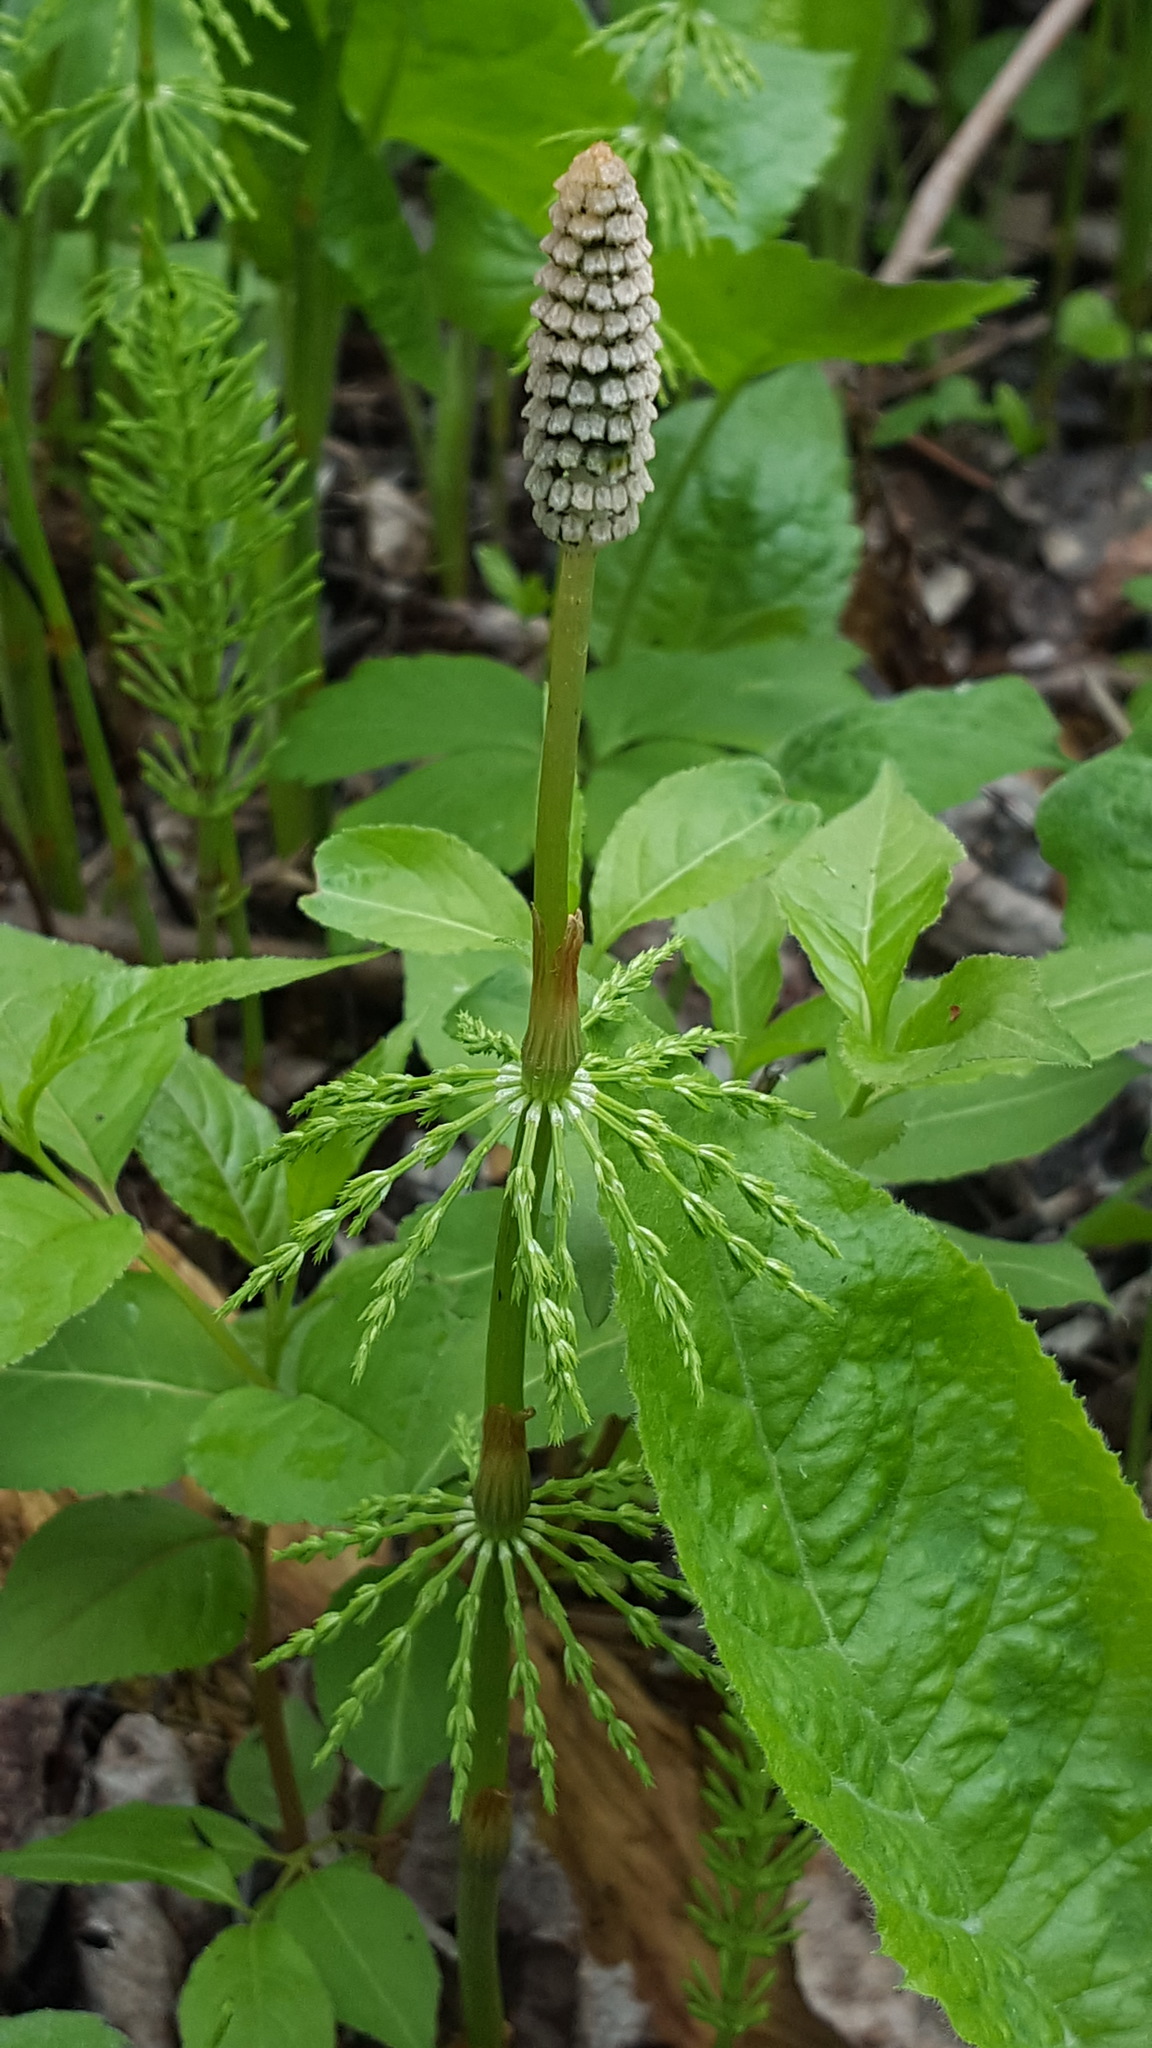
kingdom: Plantae
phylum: Tracheophyta
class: Polypodiopsida
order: Equisetales
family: Equisetaceae
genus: Equisetum
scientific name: Equisetum sylvaticum
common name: Wood horsetail
